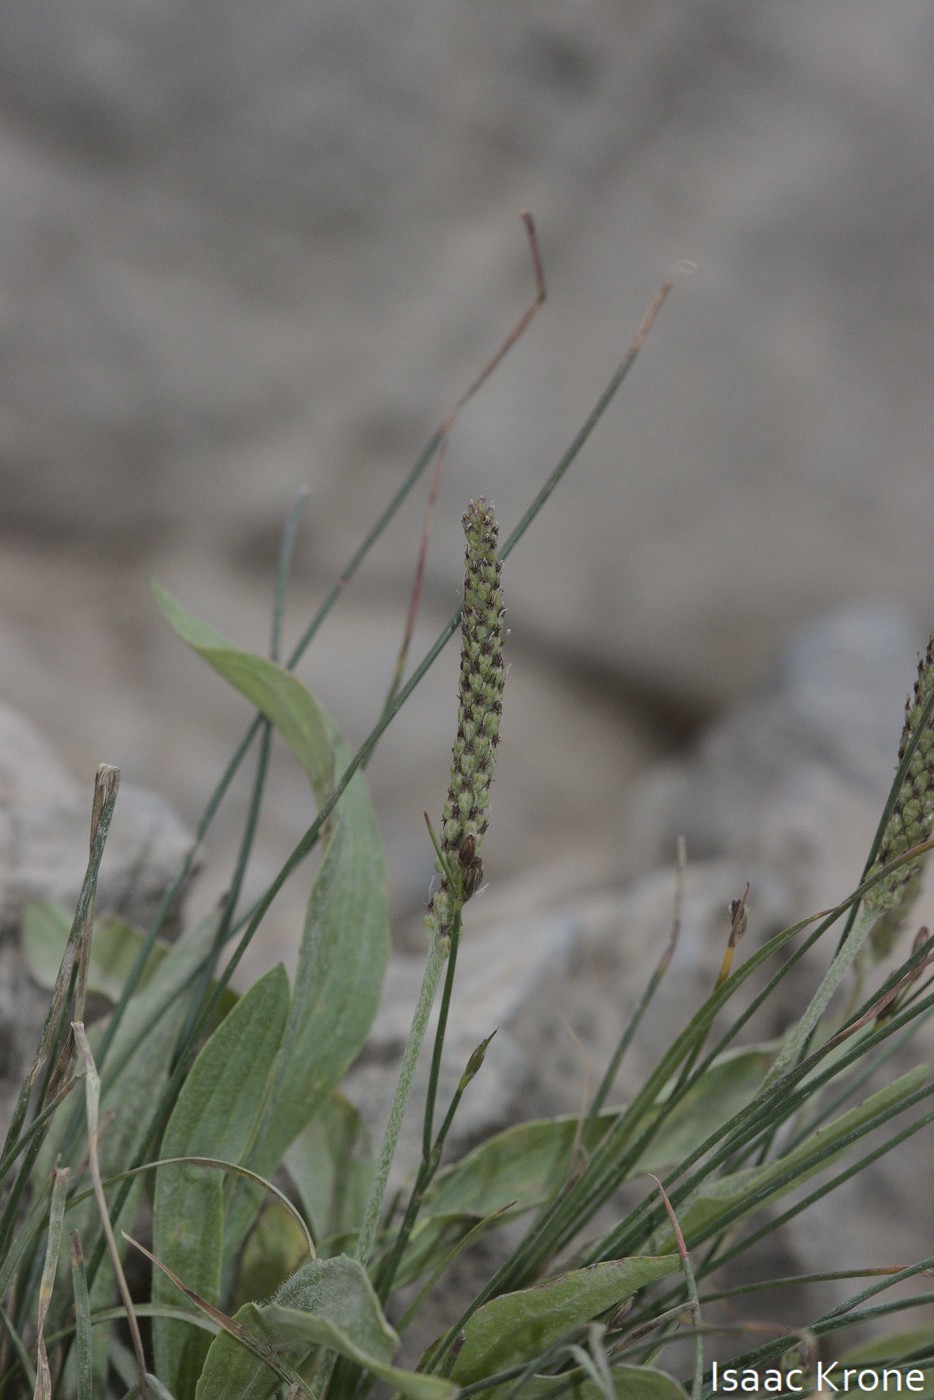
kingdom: Plantae
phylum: Tracheophyta
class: Magnoliopsida
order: Lamiales
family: Plantaginaceae
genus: Plantago
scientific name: Plantago lanceolata
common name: Ribwort plantain
